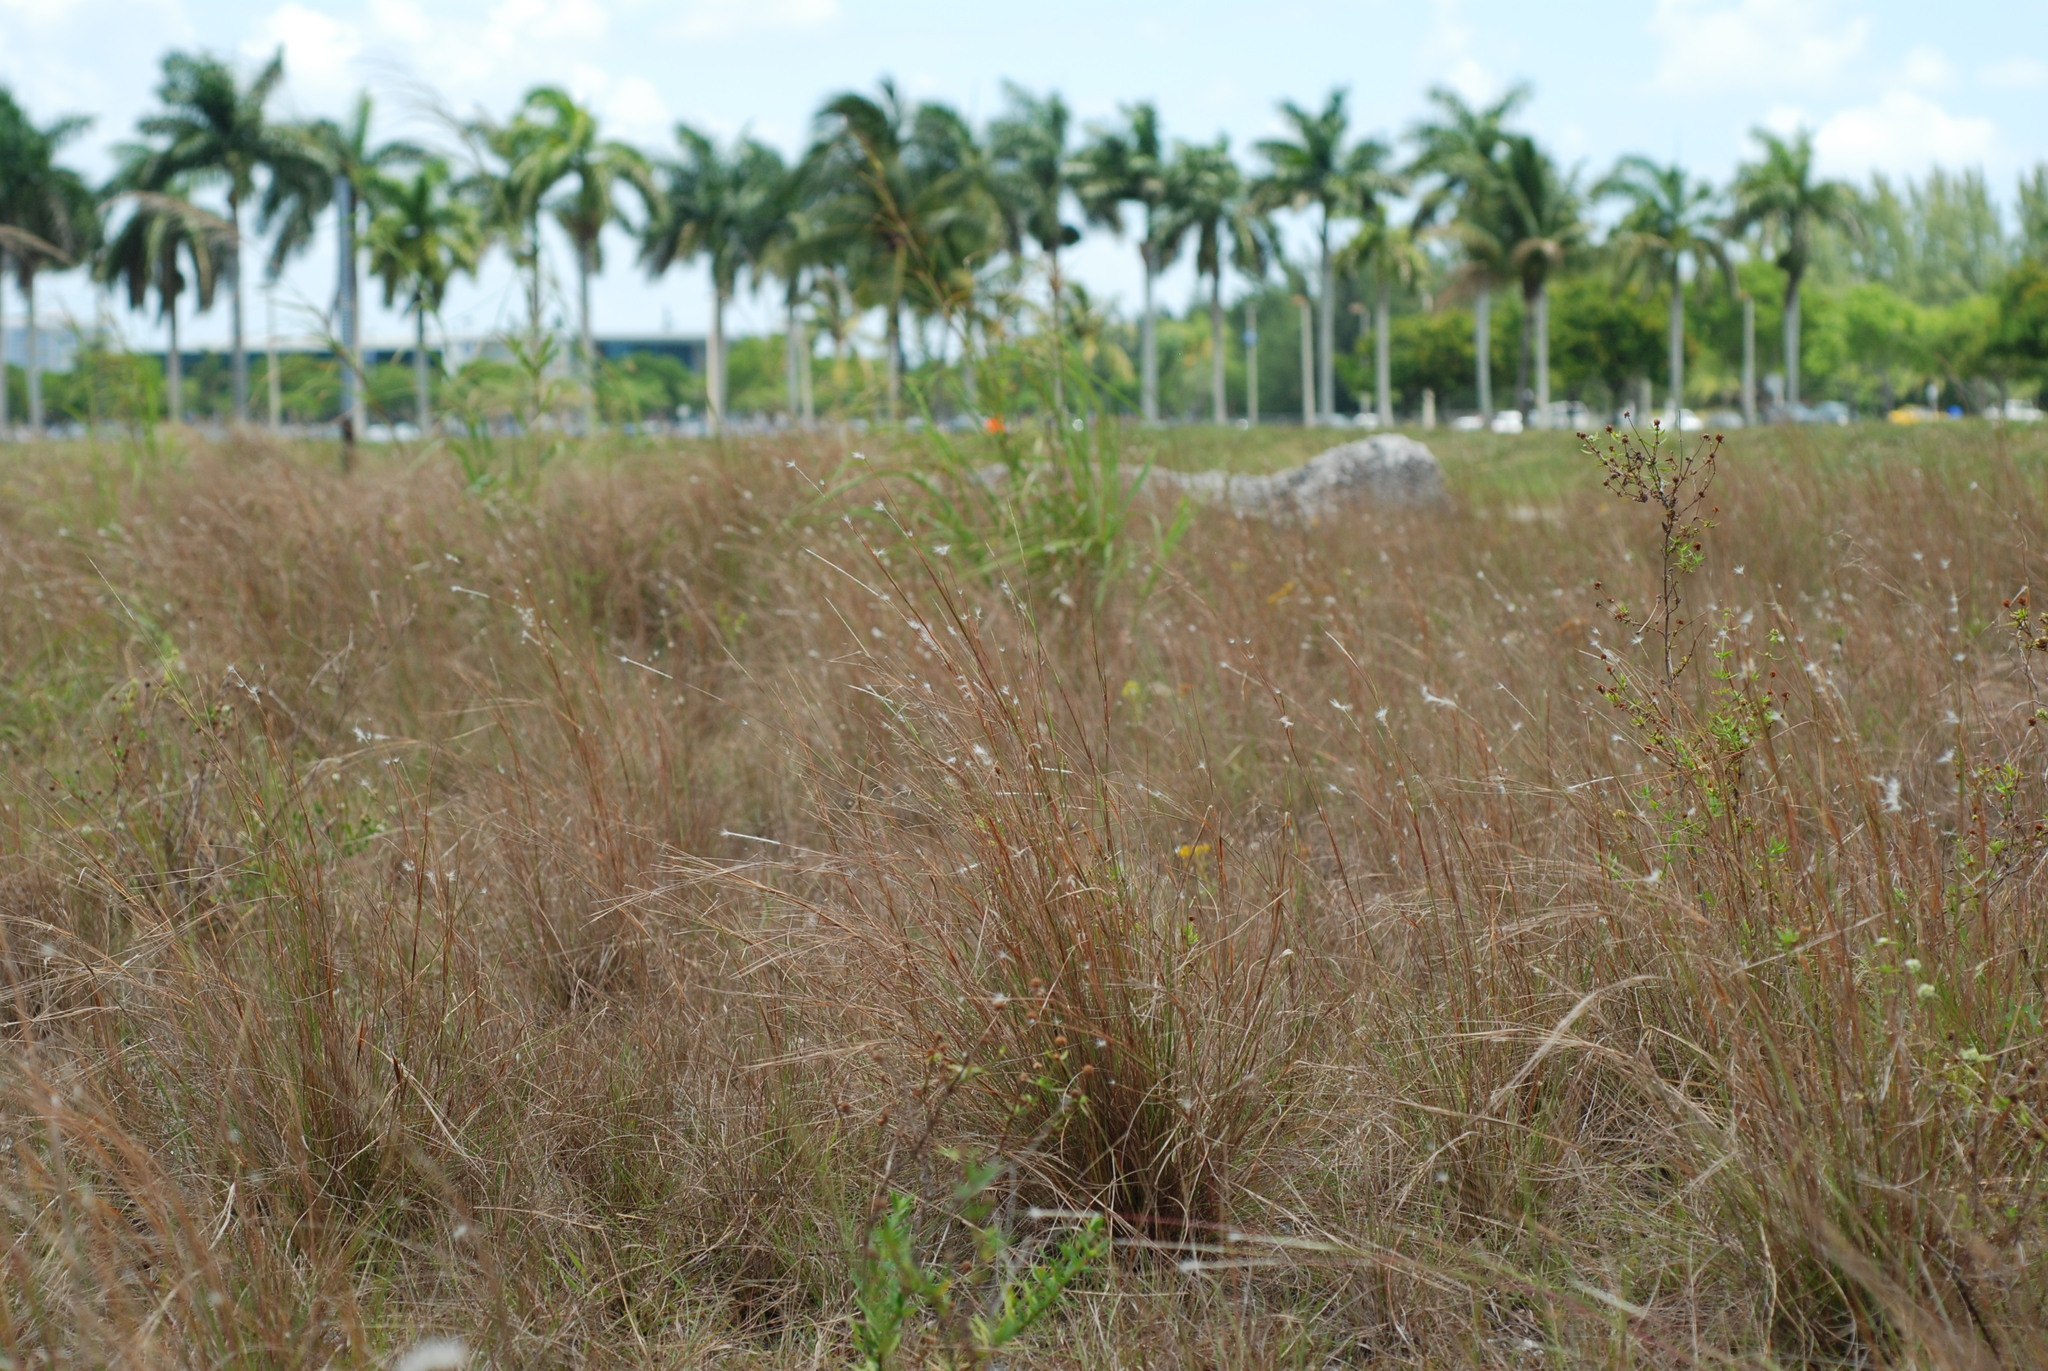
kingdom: Plantae
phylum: Tracheophyta
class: Liliopsida
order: Poales
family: Poaceae
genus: Schizachyrium
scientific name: Schizachyrium gracile
